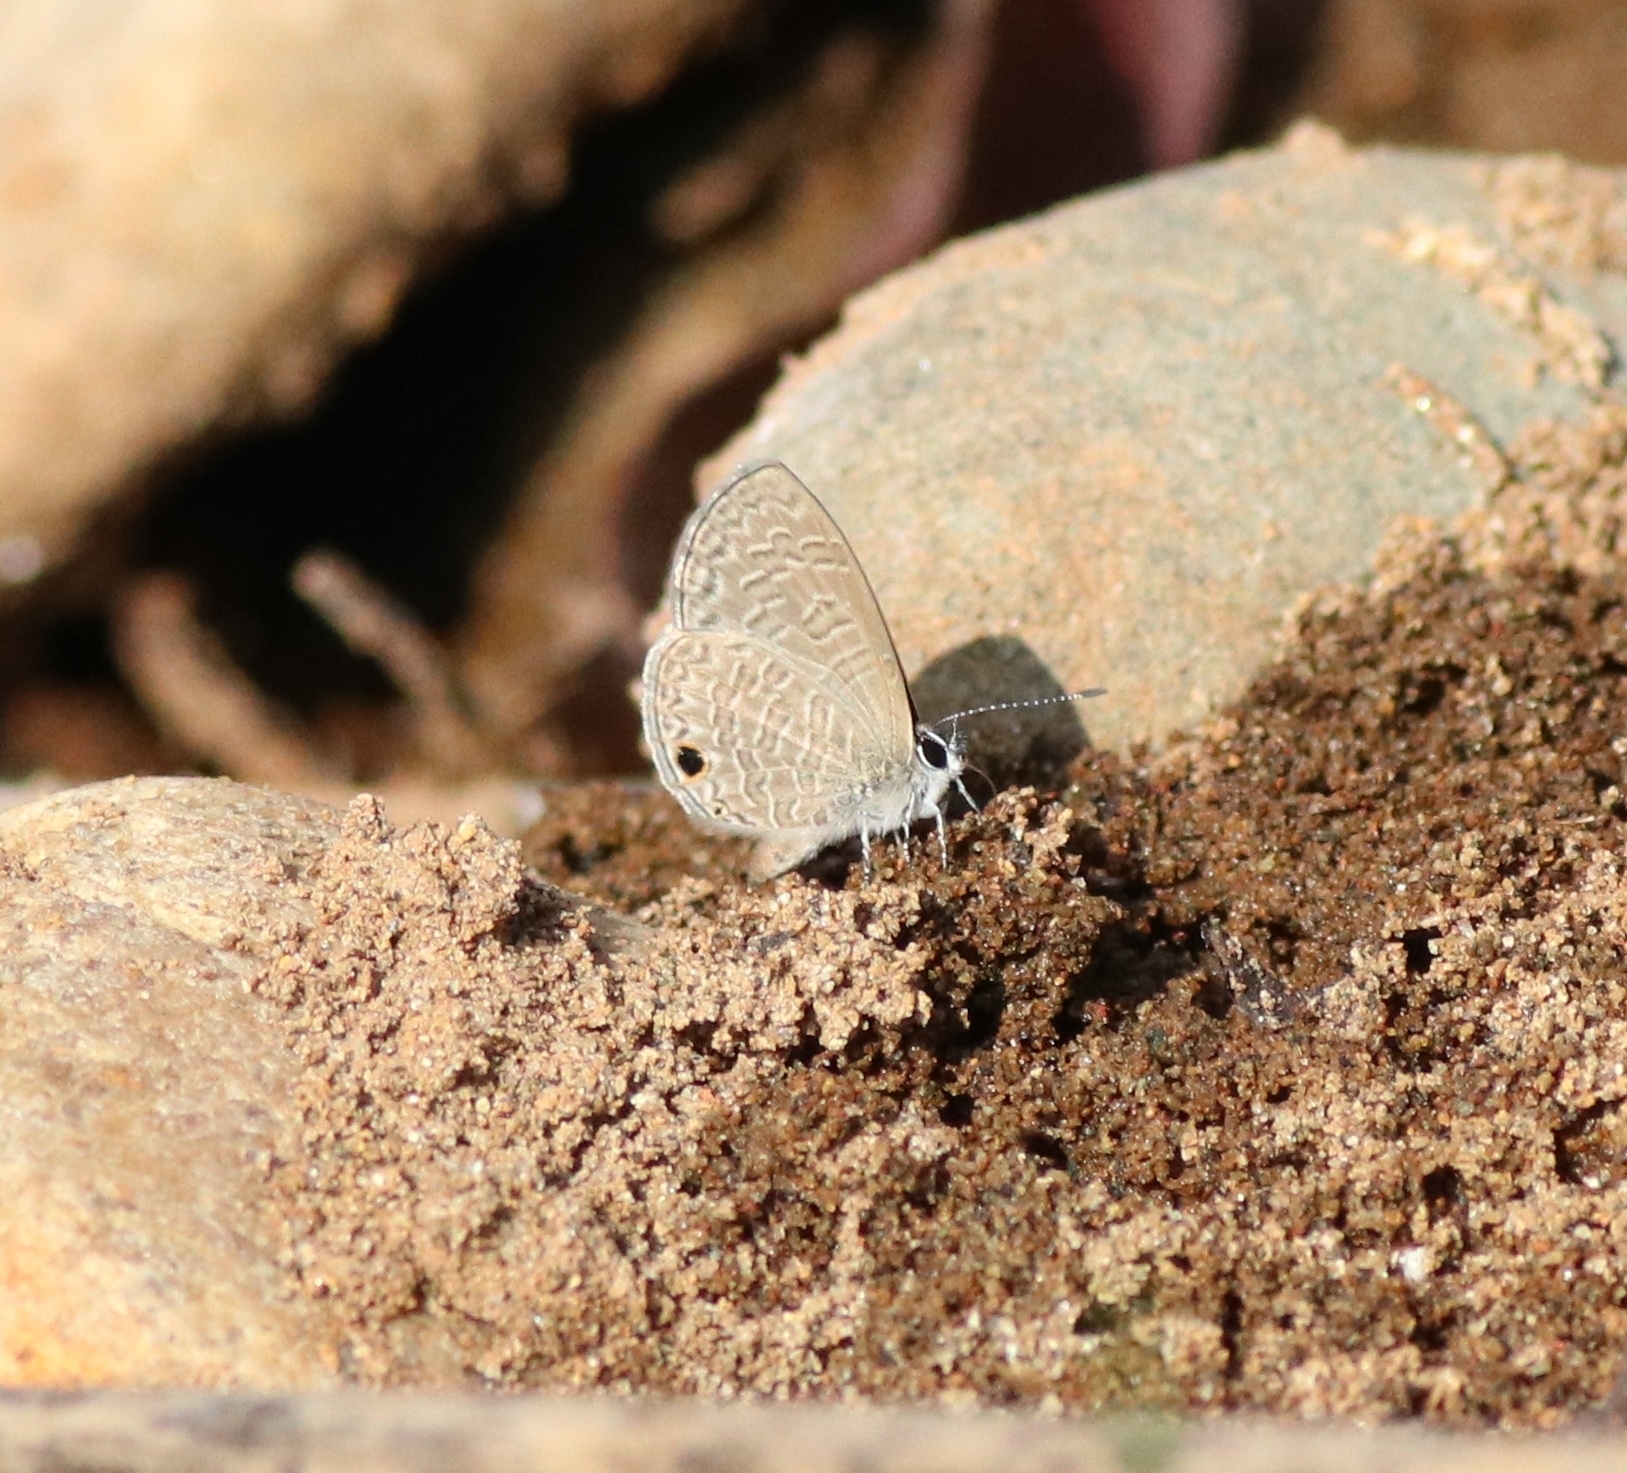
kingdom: Animalia
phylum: Arthropoda
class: Insecta
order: Lepidoptera
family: Lycaenidae
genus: Prosotas
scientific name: Prosotas dubiosa
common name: Tailless lineblue
